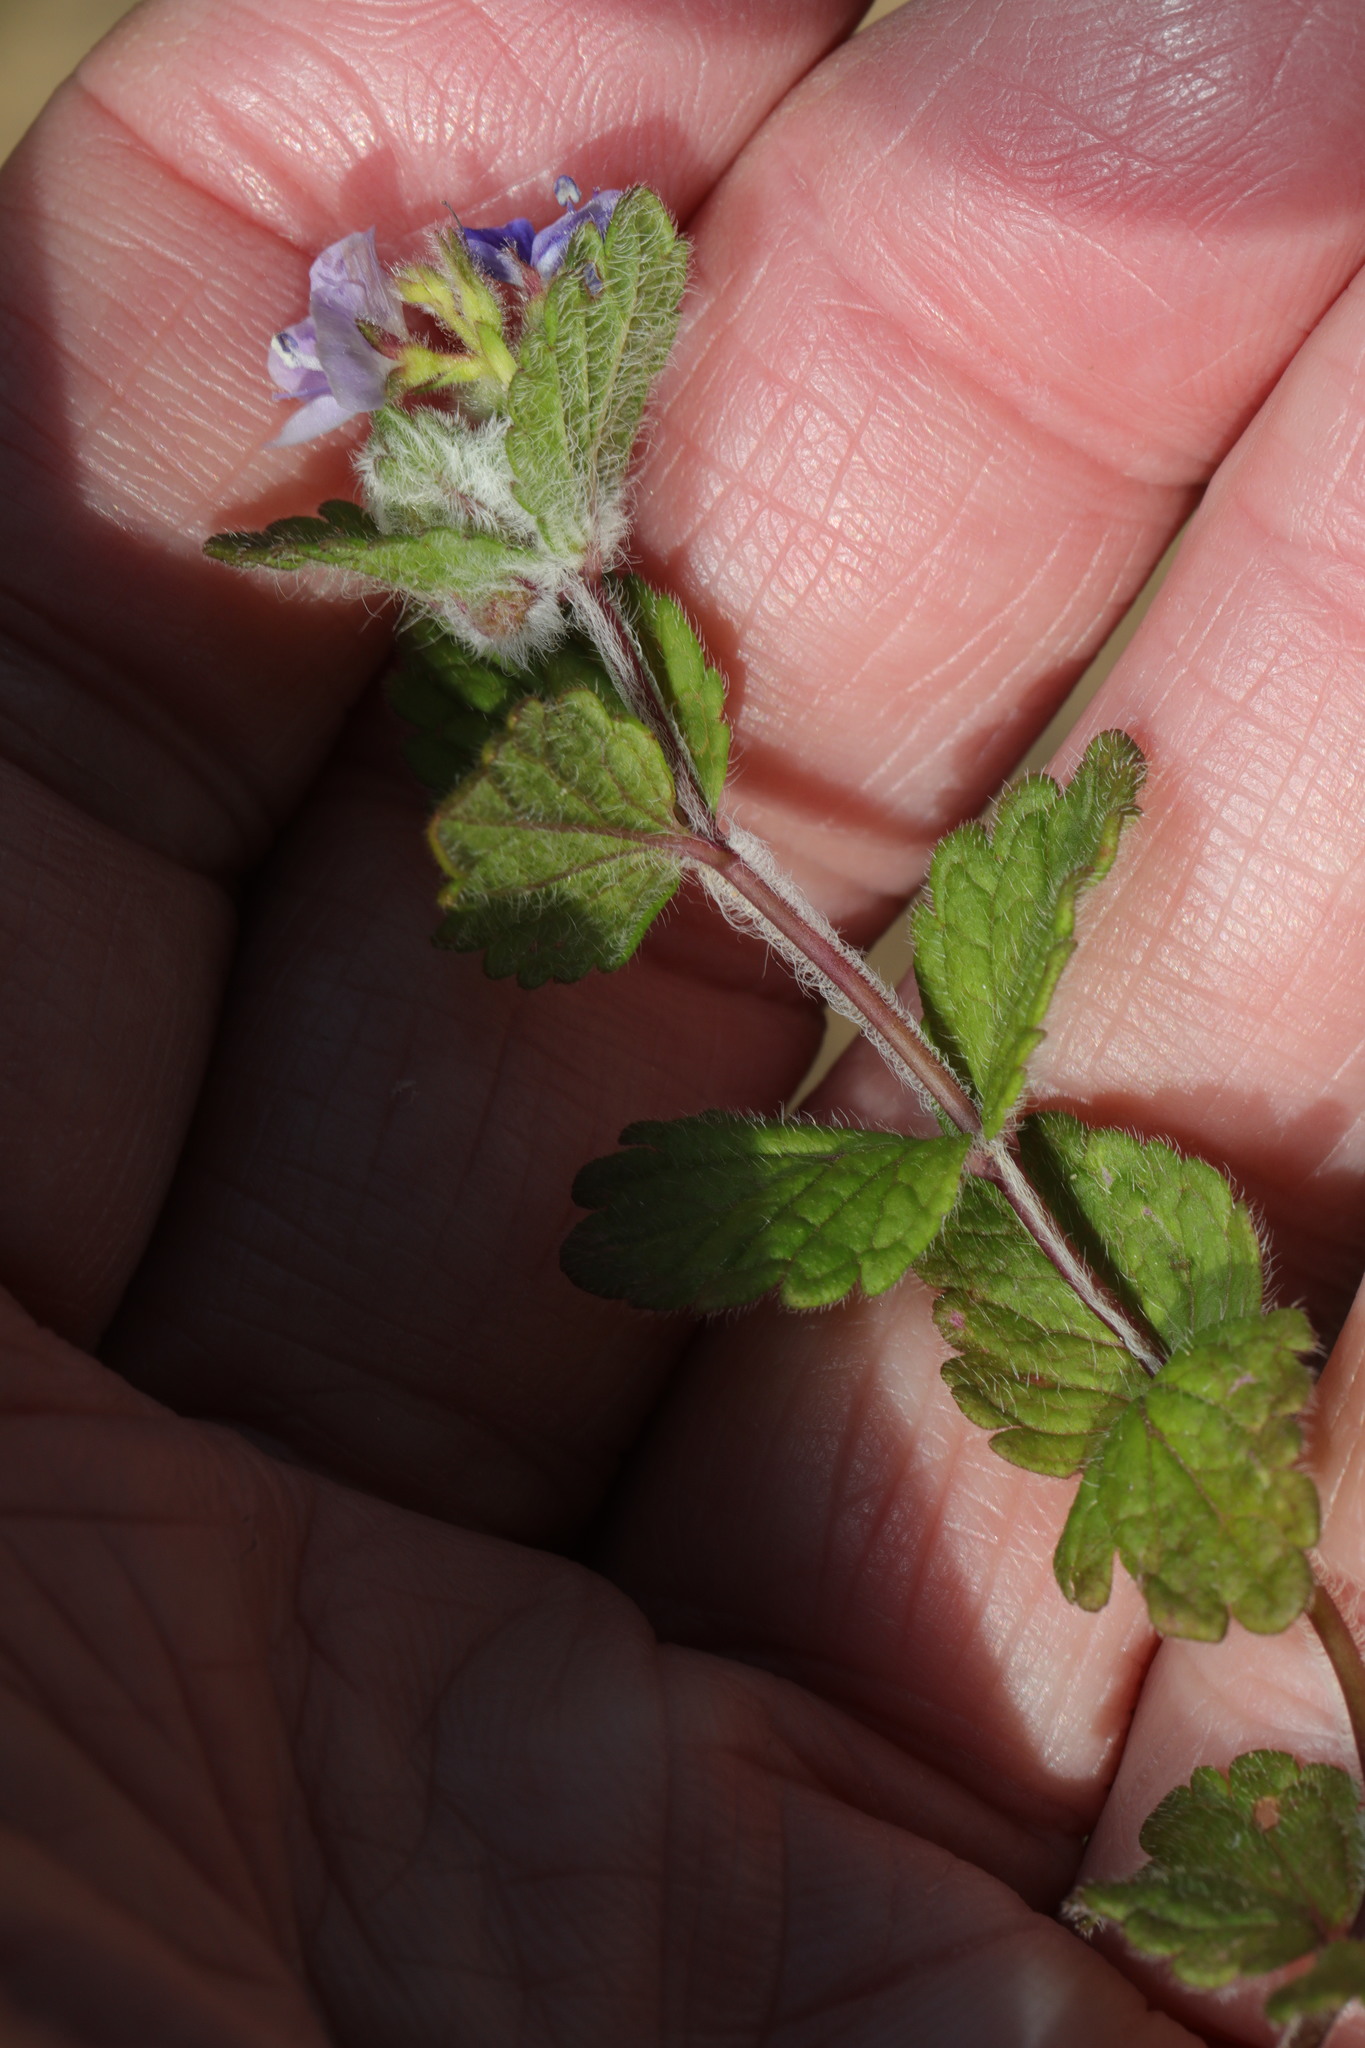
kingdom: Plantae
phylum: Tracheophyta
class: Magnoliopsida
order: Lamiales
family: Plantaginaceae
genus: Veronica
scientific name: Veronica chamaedrys
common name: Germander speedwell
